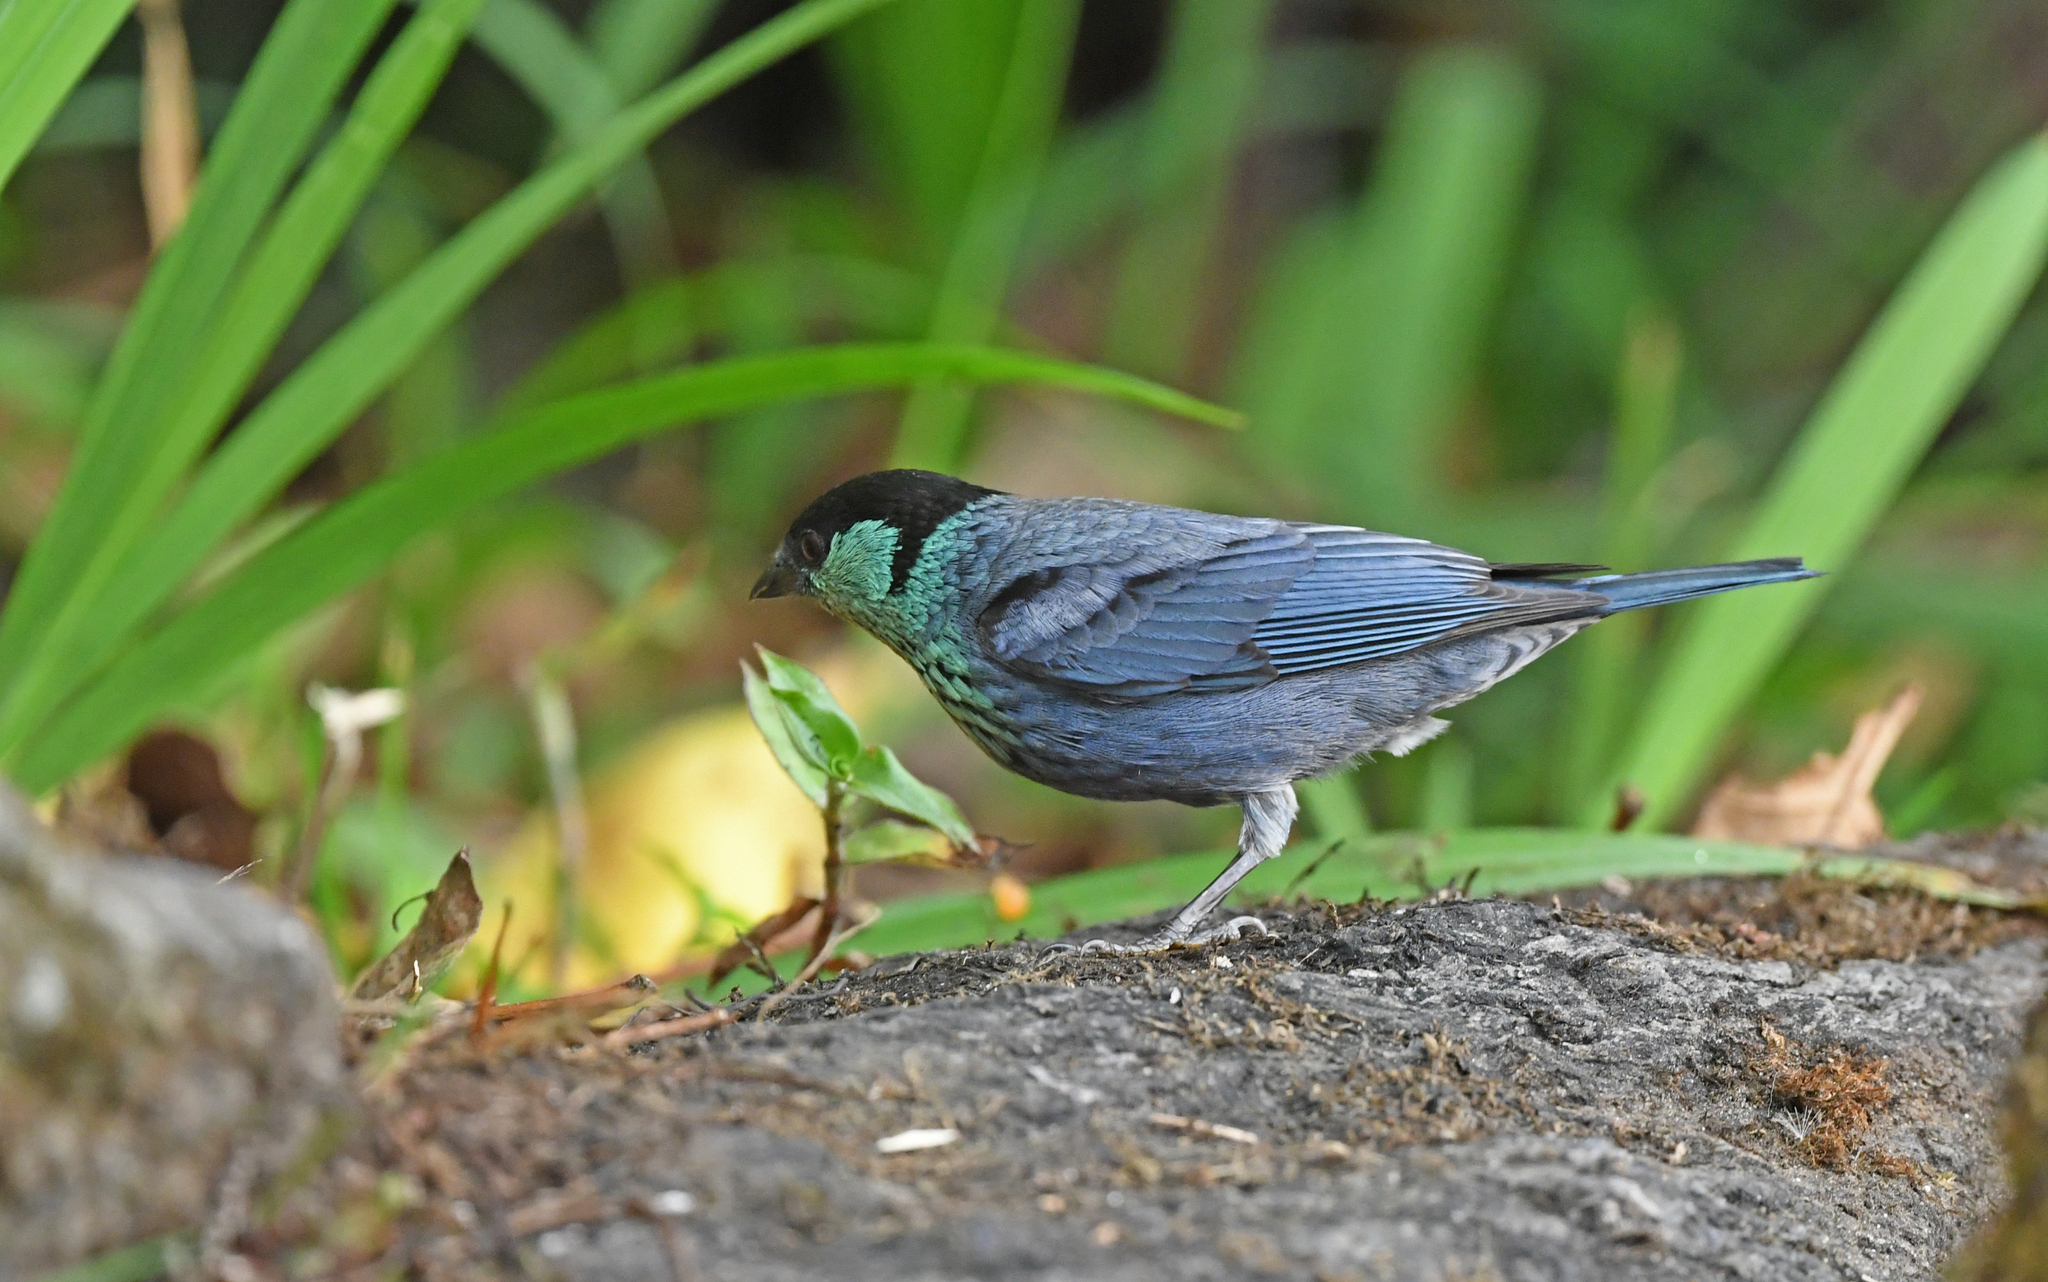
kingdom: Animalia
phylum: Chordata
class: Aves
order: Passeriformes
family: Thraupidae
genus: Stilpnia
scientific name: Stilpnia heinei
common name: Black-capped tanager
